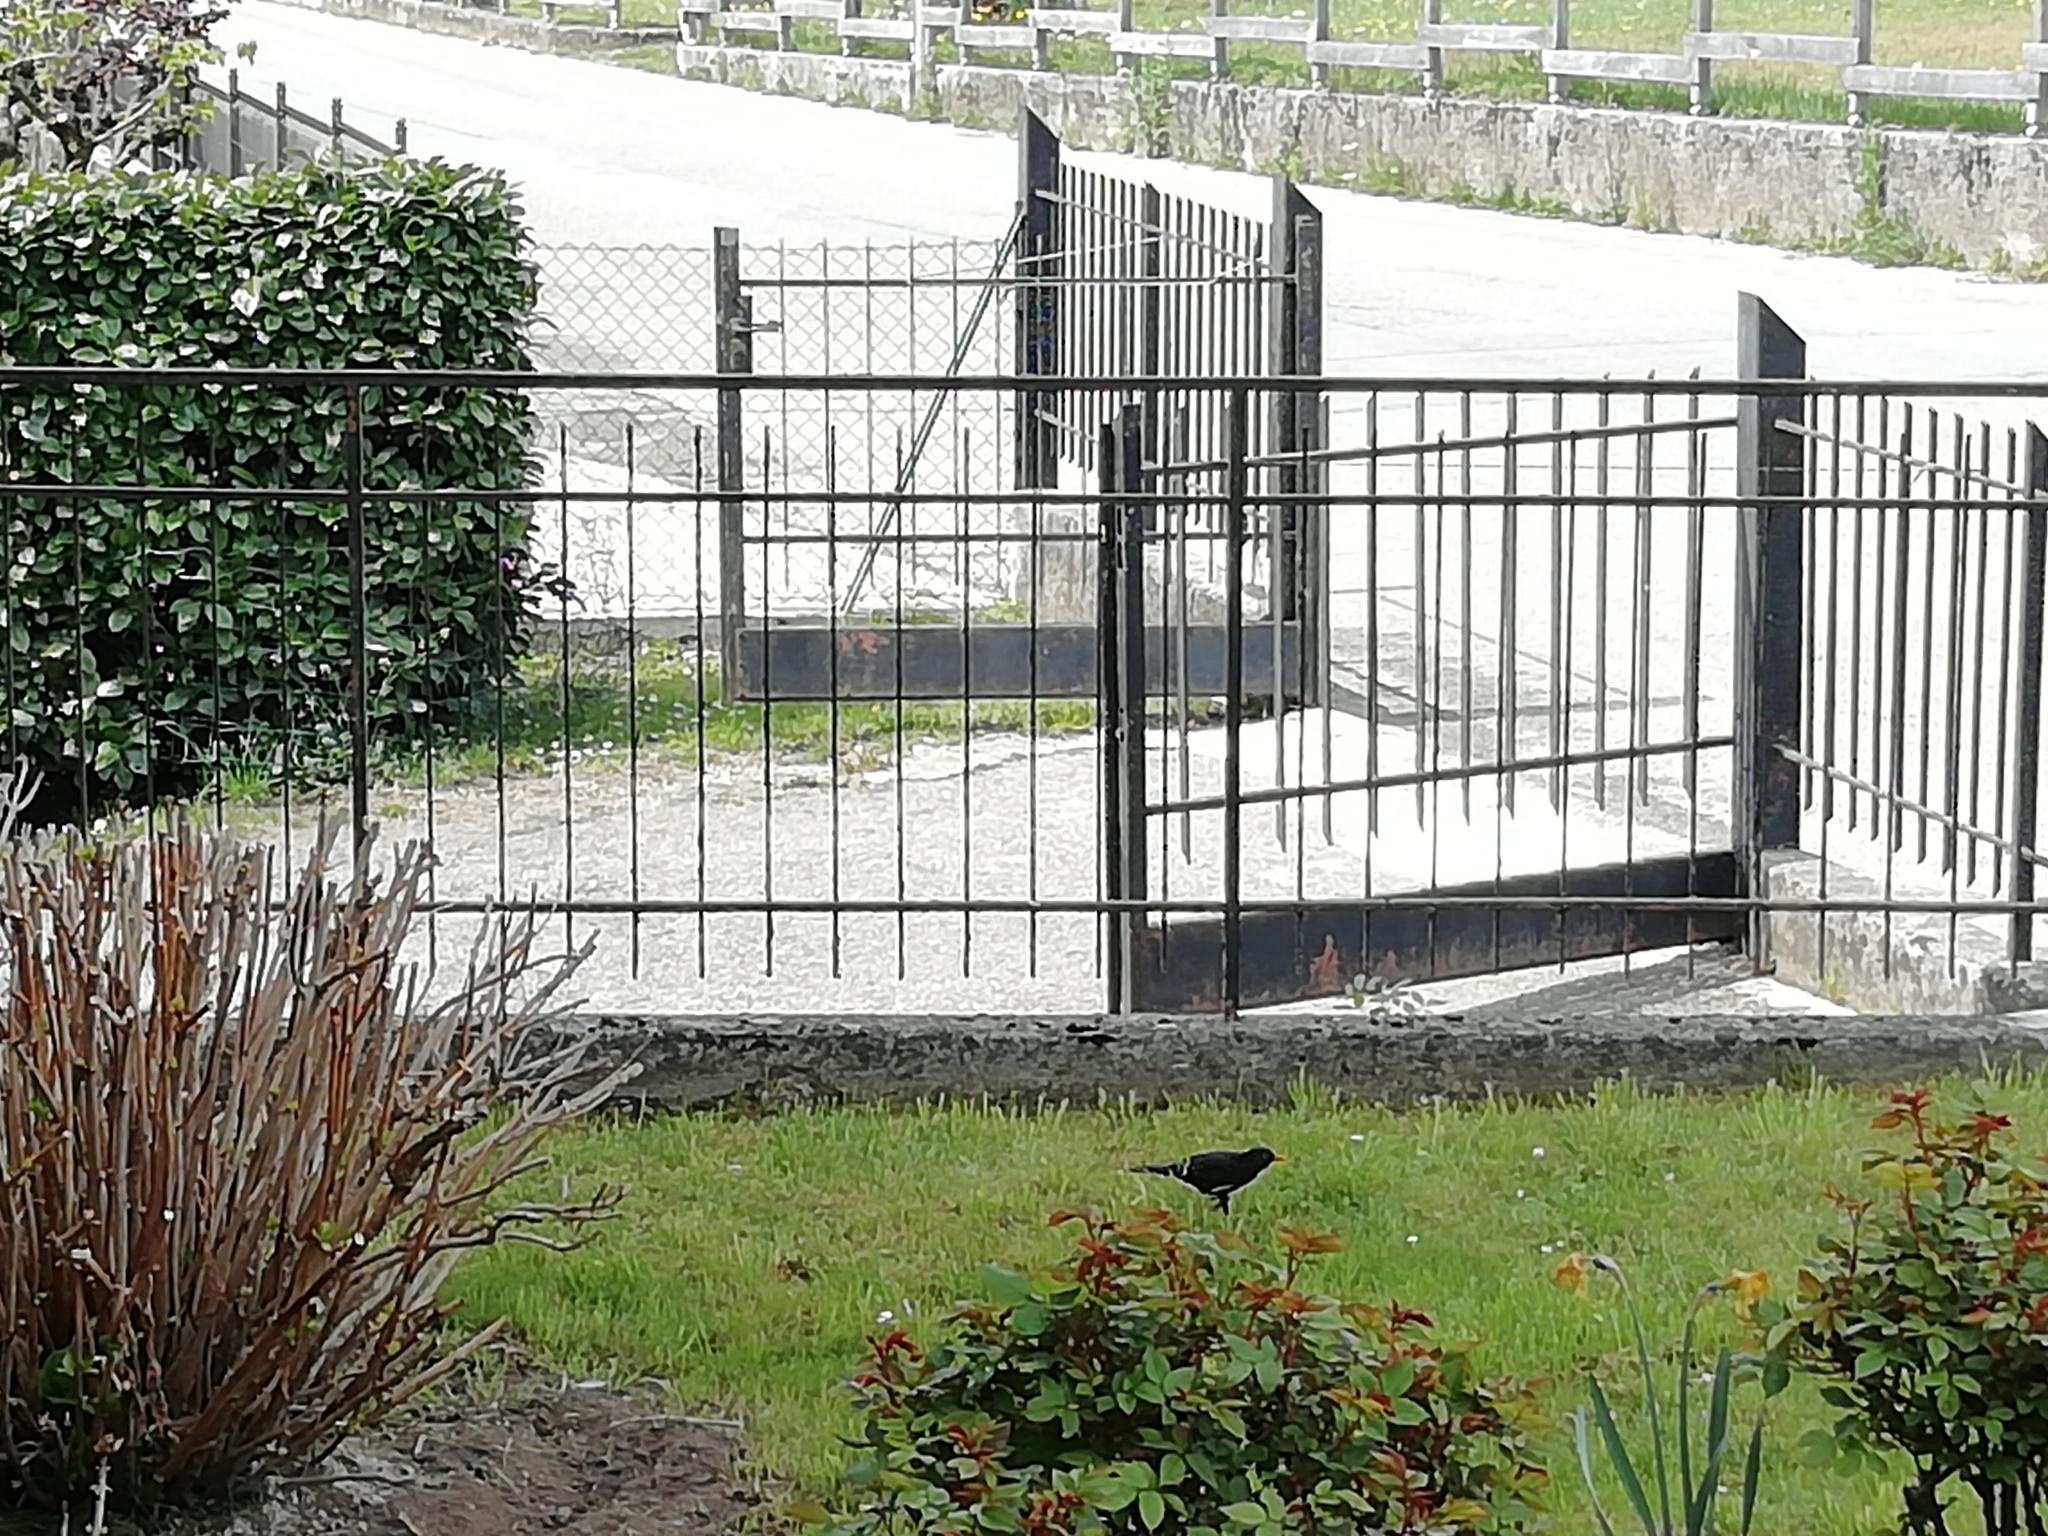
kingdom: Animalia
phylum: Chordata
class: Aves
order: Passeriformes
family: Turdidae
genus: Turdus
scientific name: Turdus merula
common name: Common blackbird
